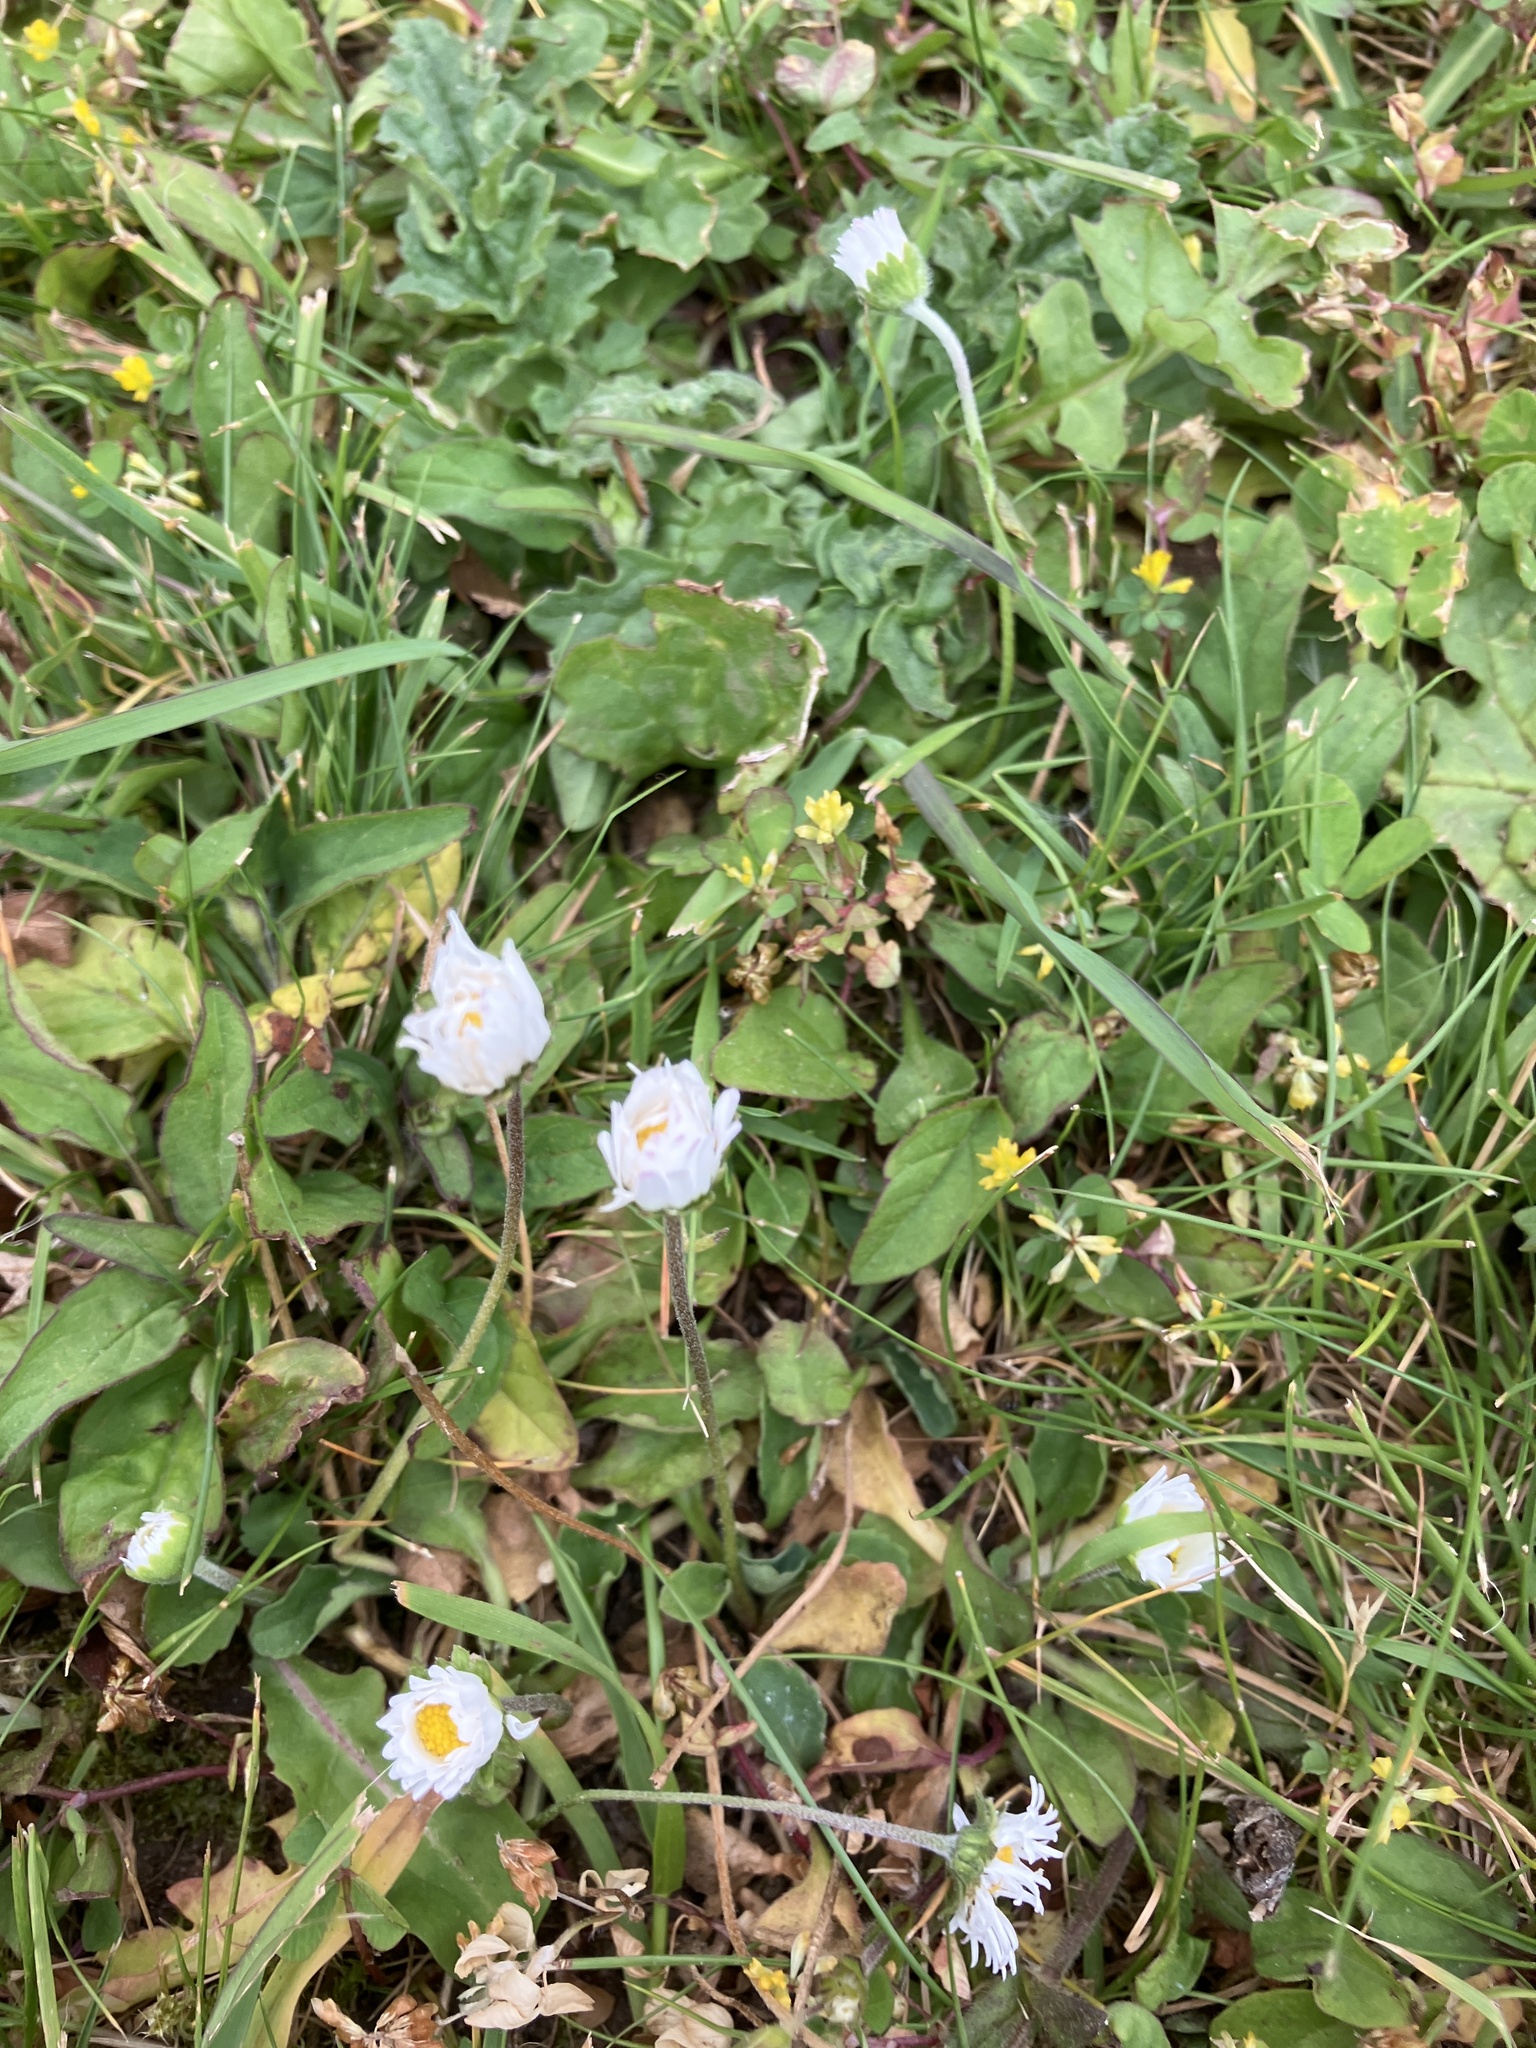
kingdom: Plantae
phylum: Tracheophyta
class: Magnoliopsida
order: Asterales
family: Asteraceae
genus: Bellis
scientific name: Bellis perennis
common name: Lawndaisy
